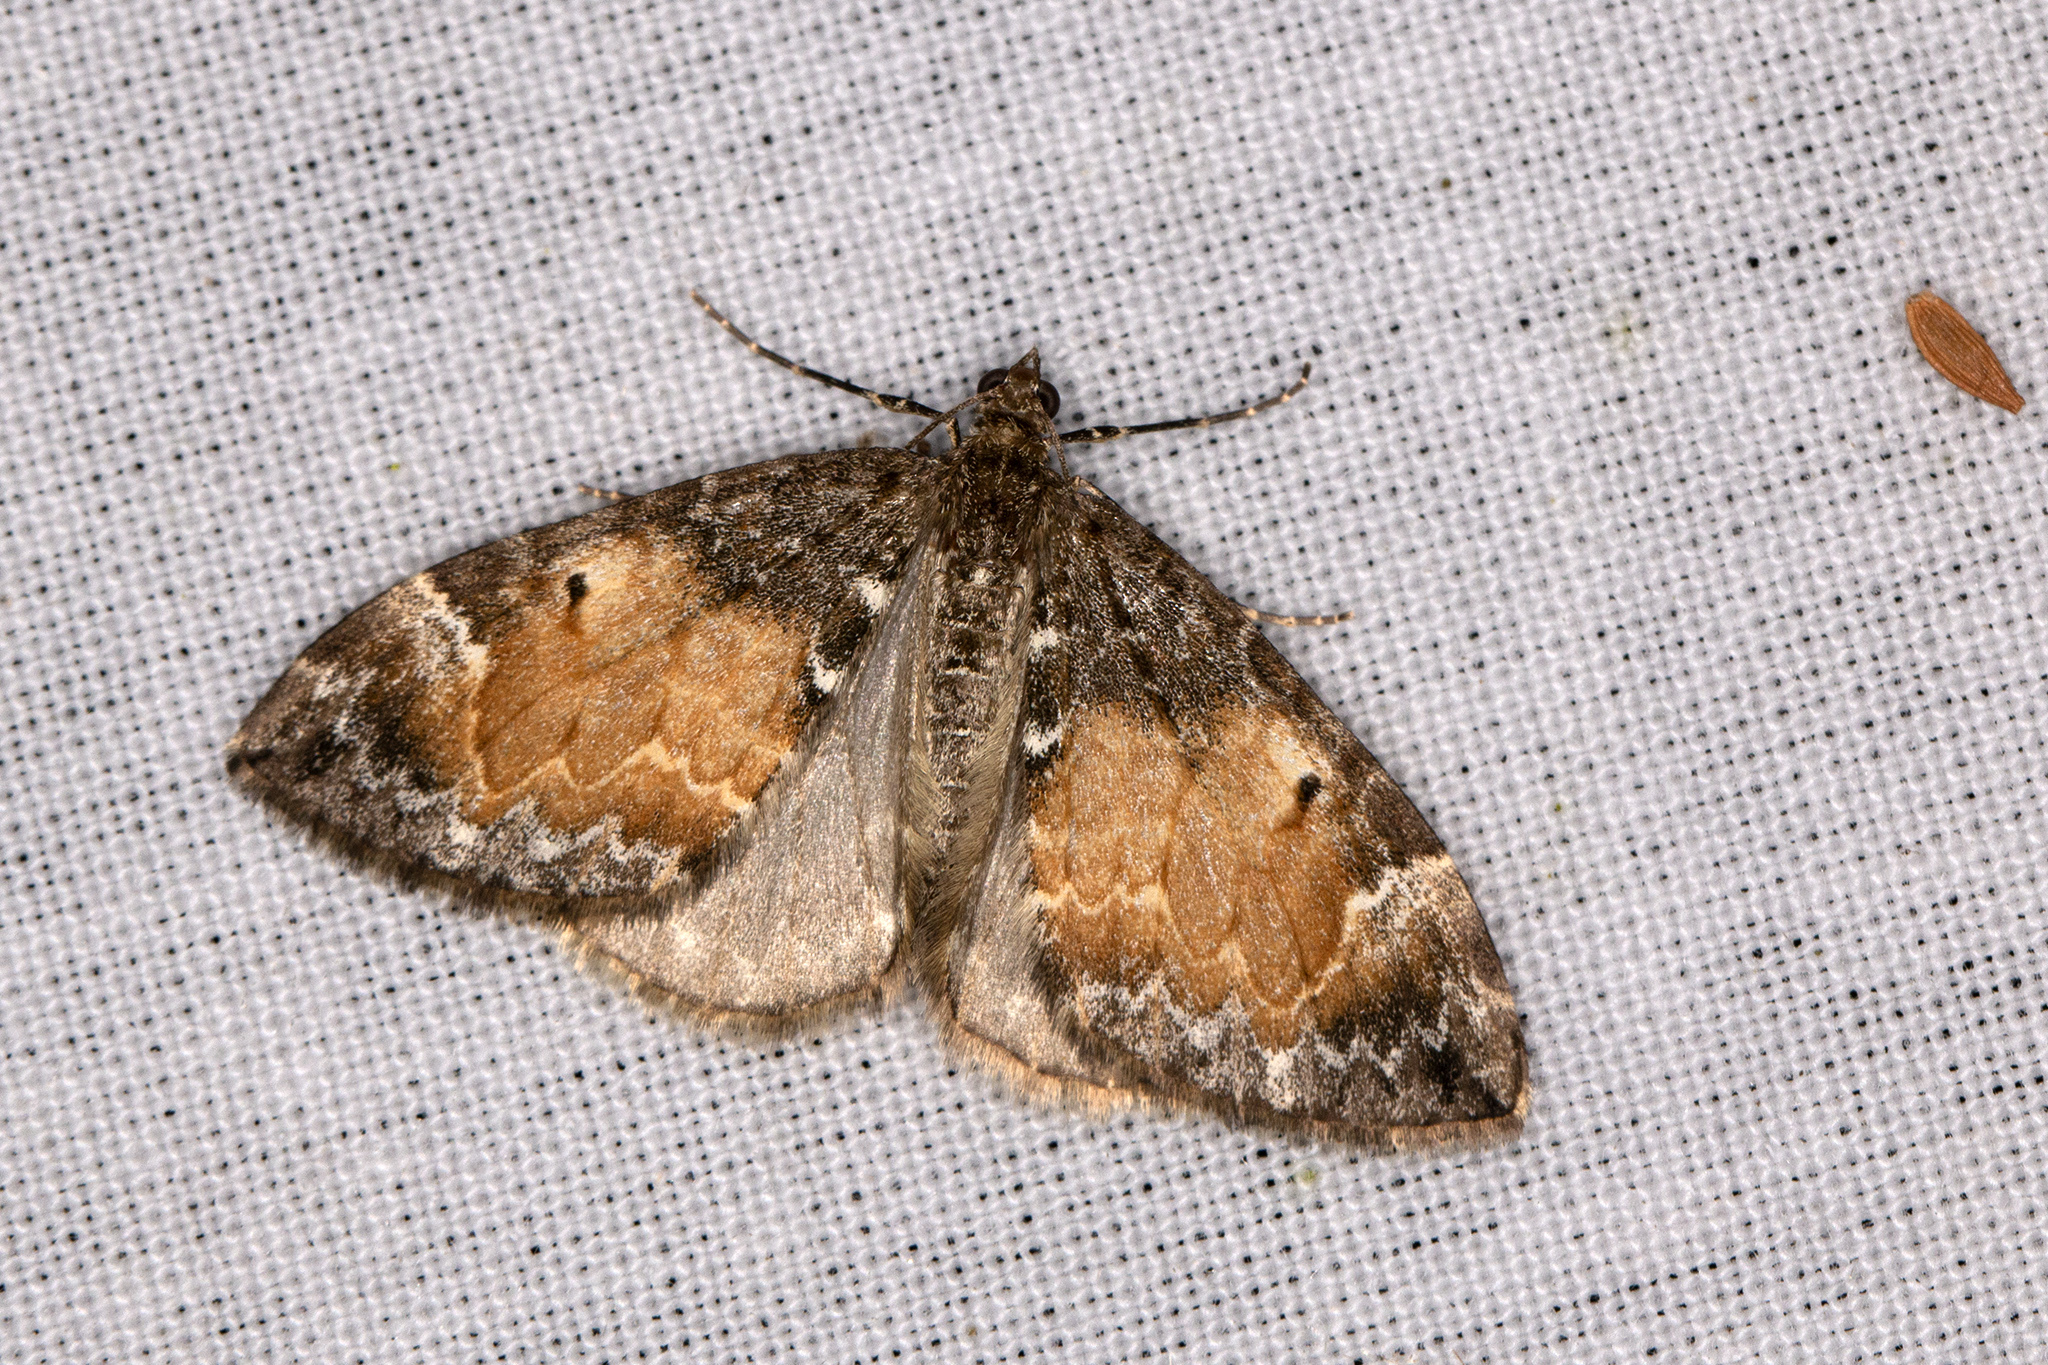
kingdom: Animalia
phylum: Arthropoda
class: Insecta
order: Lepidoptera
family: Geometridae
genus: Dysstroma
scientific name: Dysstroma truncata
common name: Common marbled carpet
